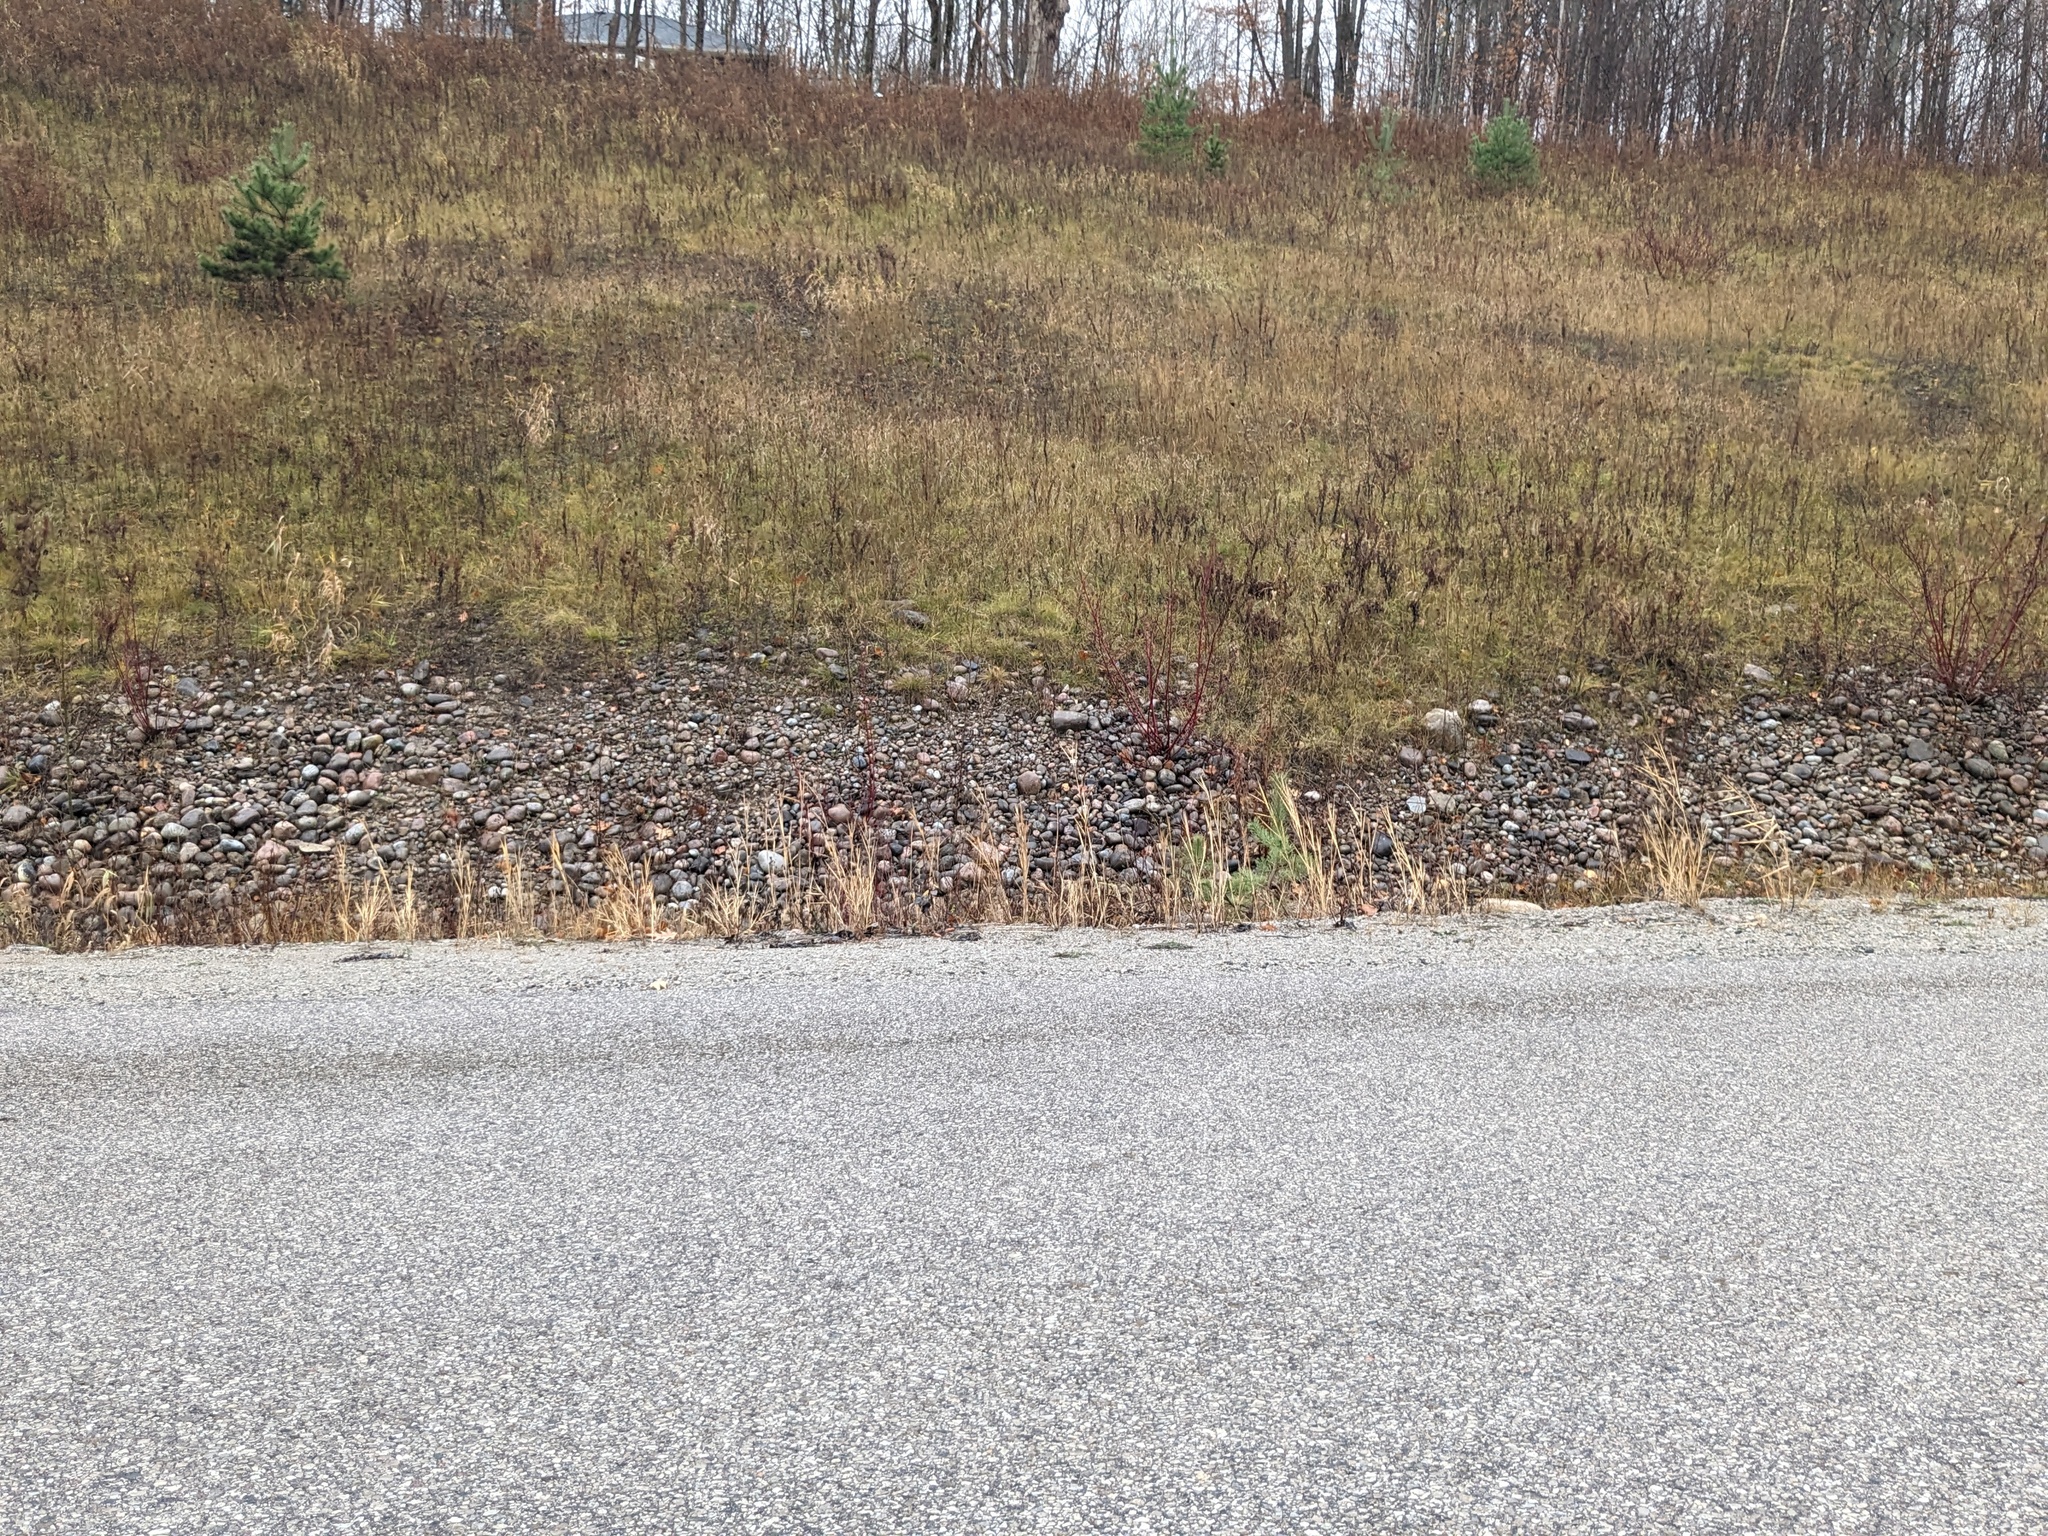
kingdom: Plantae
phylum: Tracheophyta
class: Liliopsida
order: Poales
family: Poaceae
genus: Phragmites
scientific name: Phragmites australis
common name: Common reed
